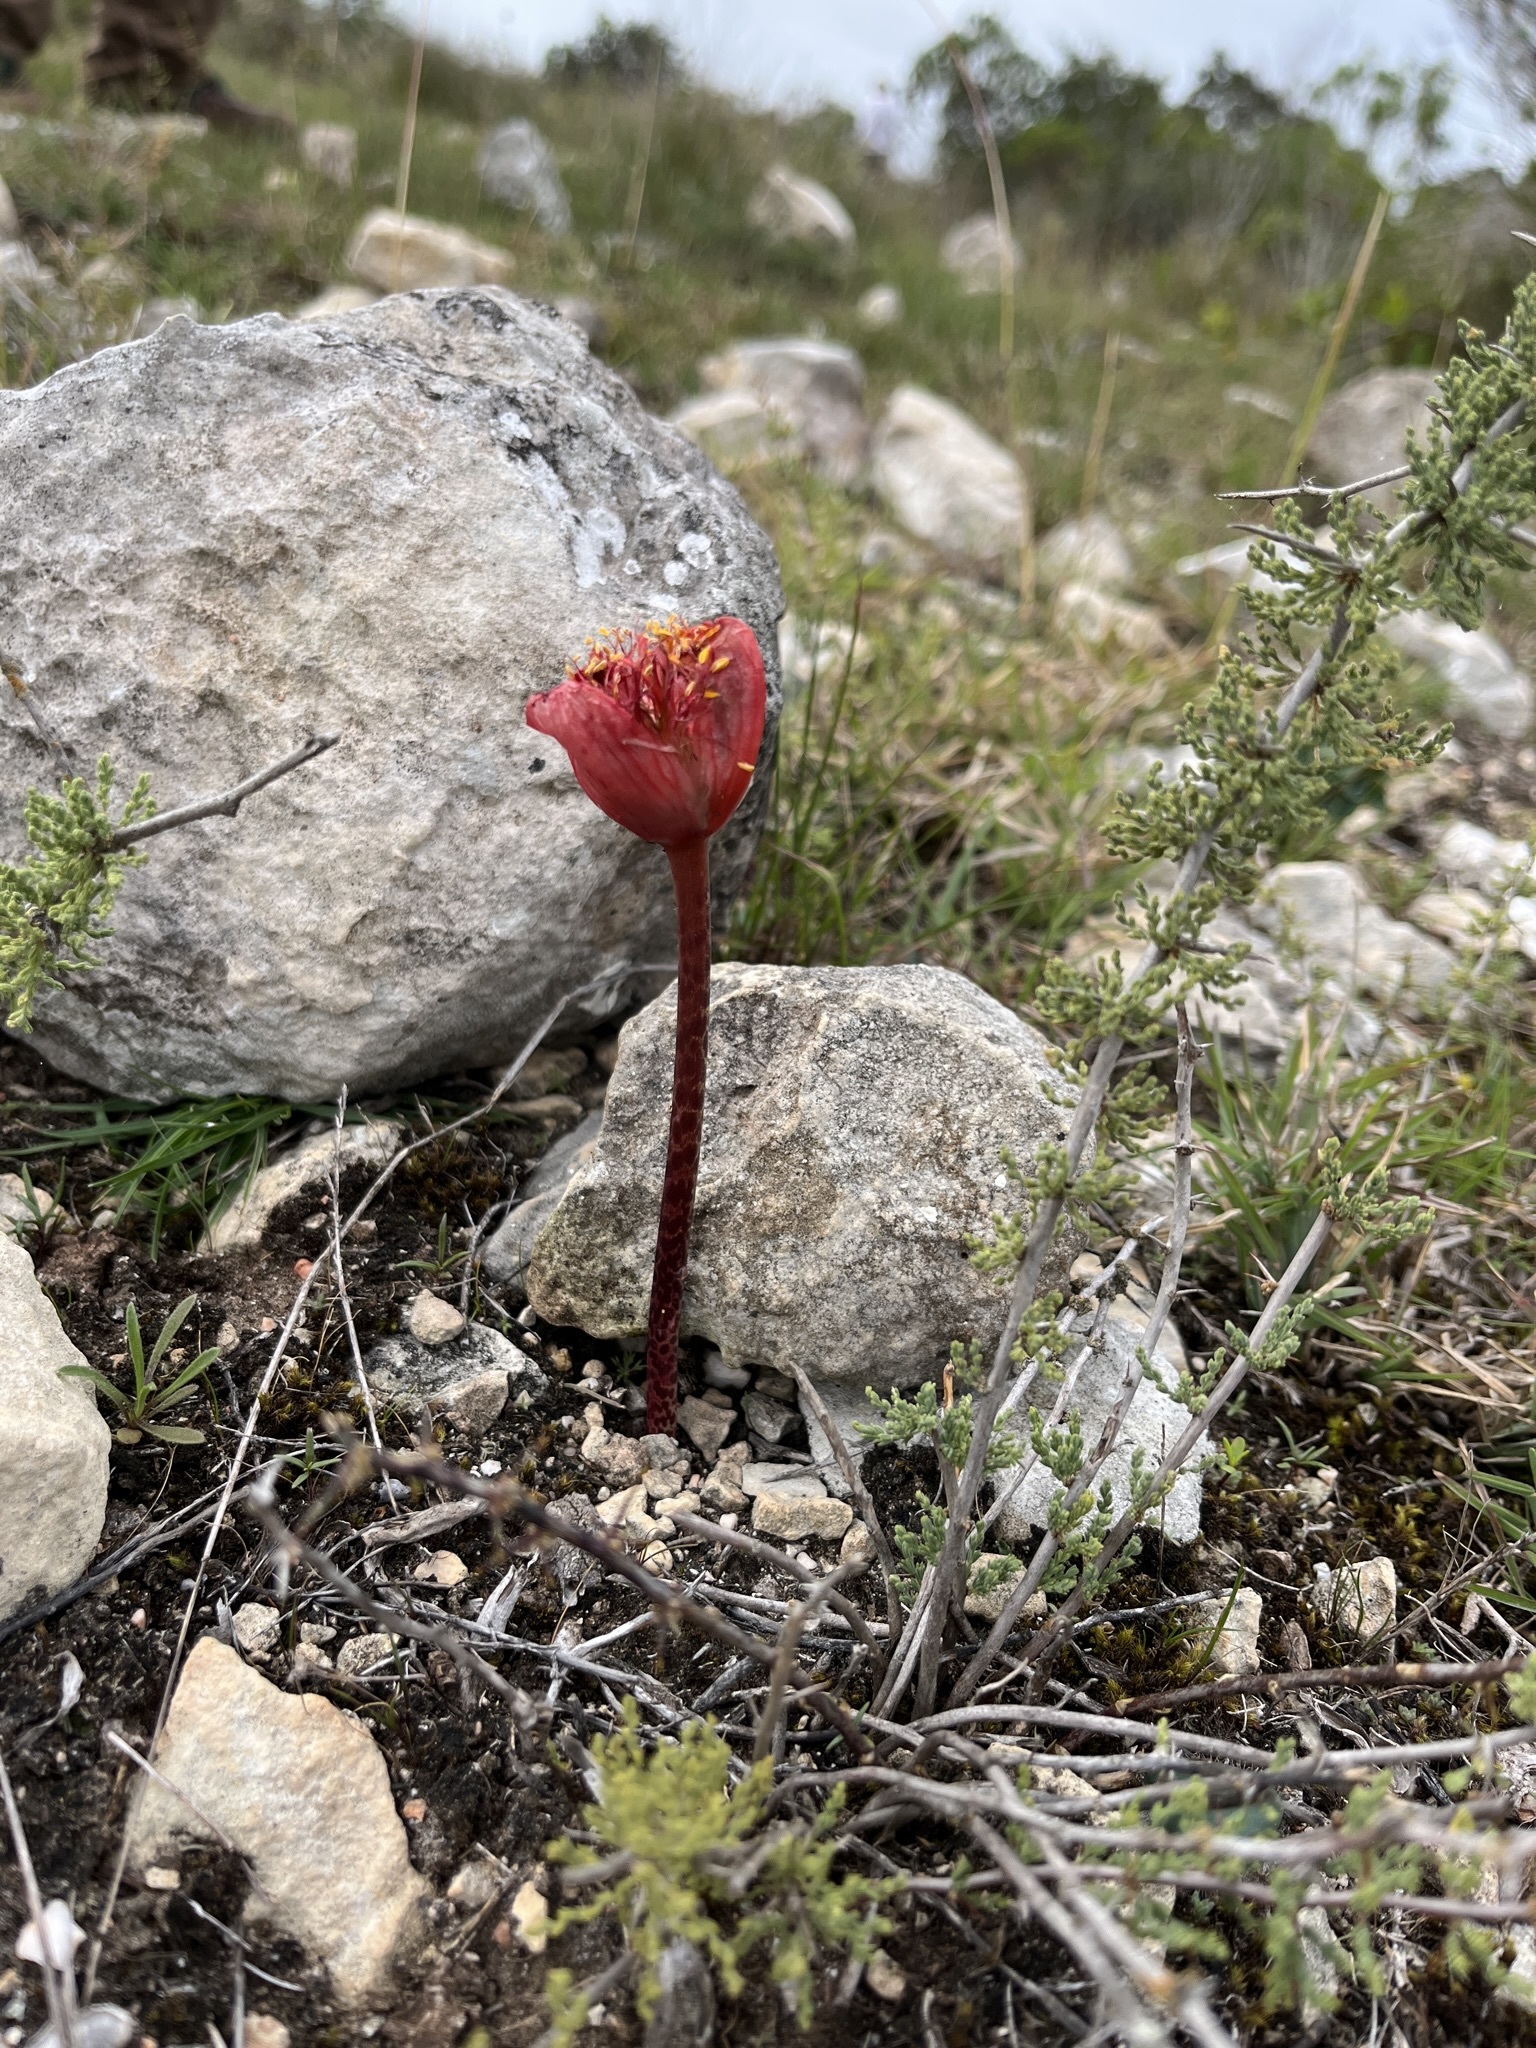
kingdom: Plantae
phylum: Tracheophyta
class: Liliopsida
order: Asparagales
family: Amaryllidaceae
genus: Haemanthus
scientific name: Haemanthus coccineus
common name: Cape-tulip
